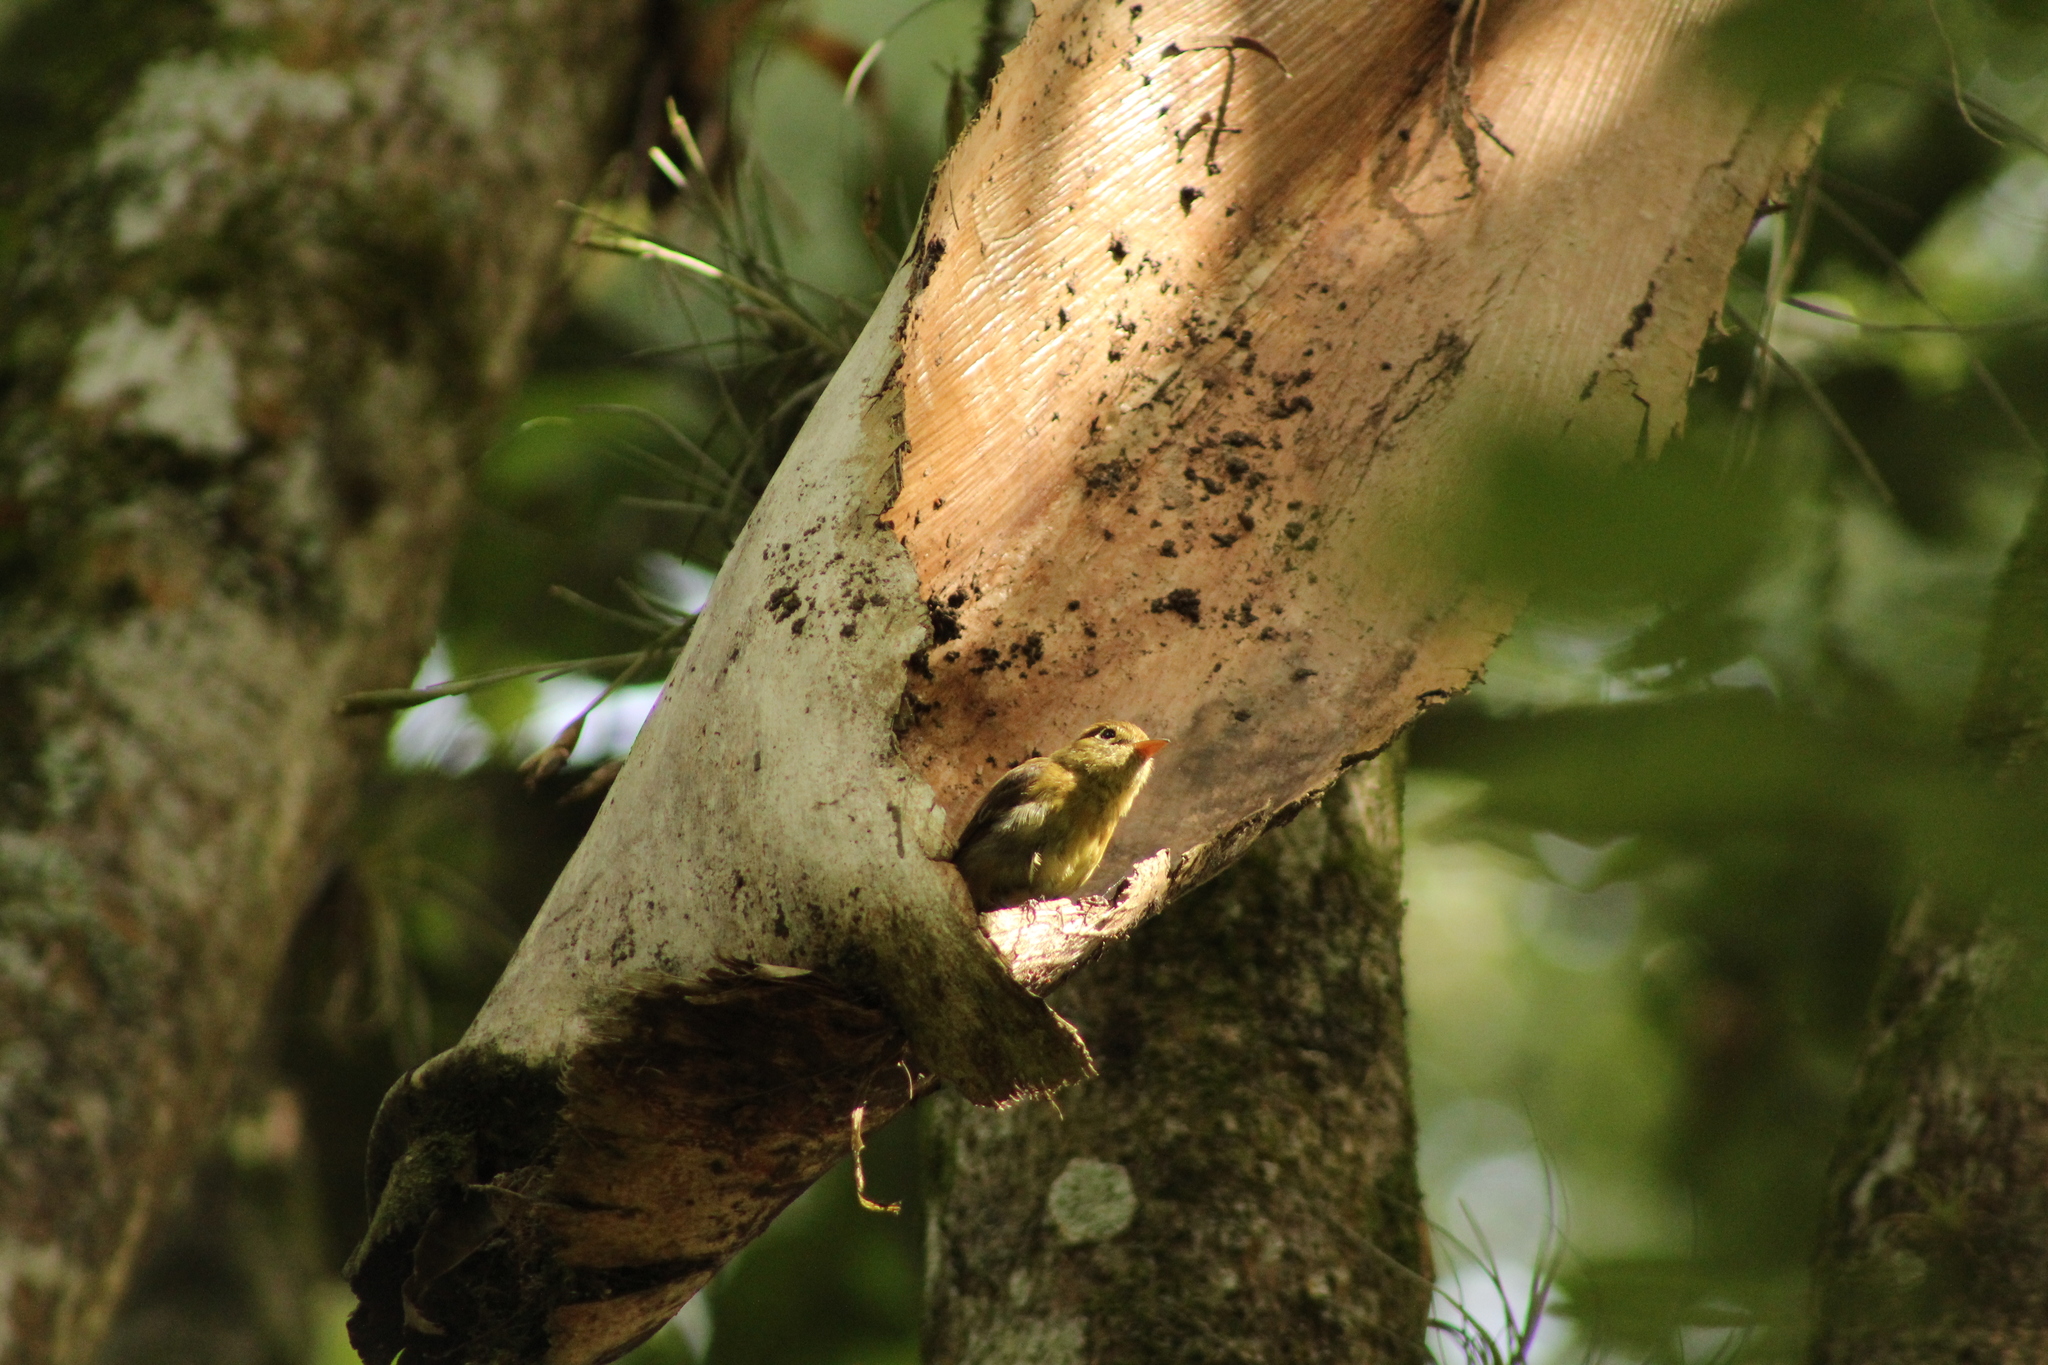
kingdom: Animalia
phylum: Chordata
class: Aves
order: Passeriformes
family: Tyrannidae
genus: Empidonax
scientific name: Empidonax difficilis
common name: Pacific-slope flycatcher
